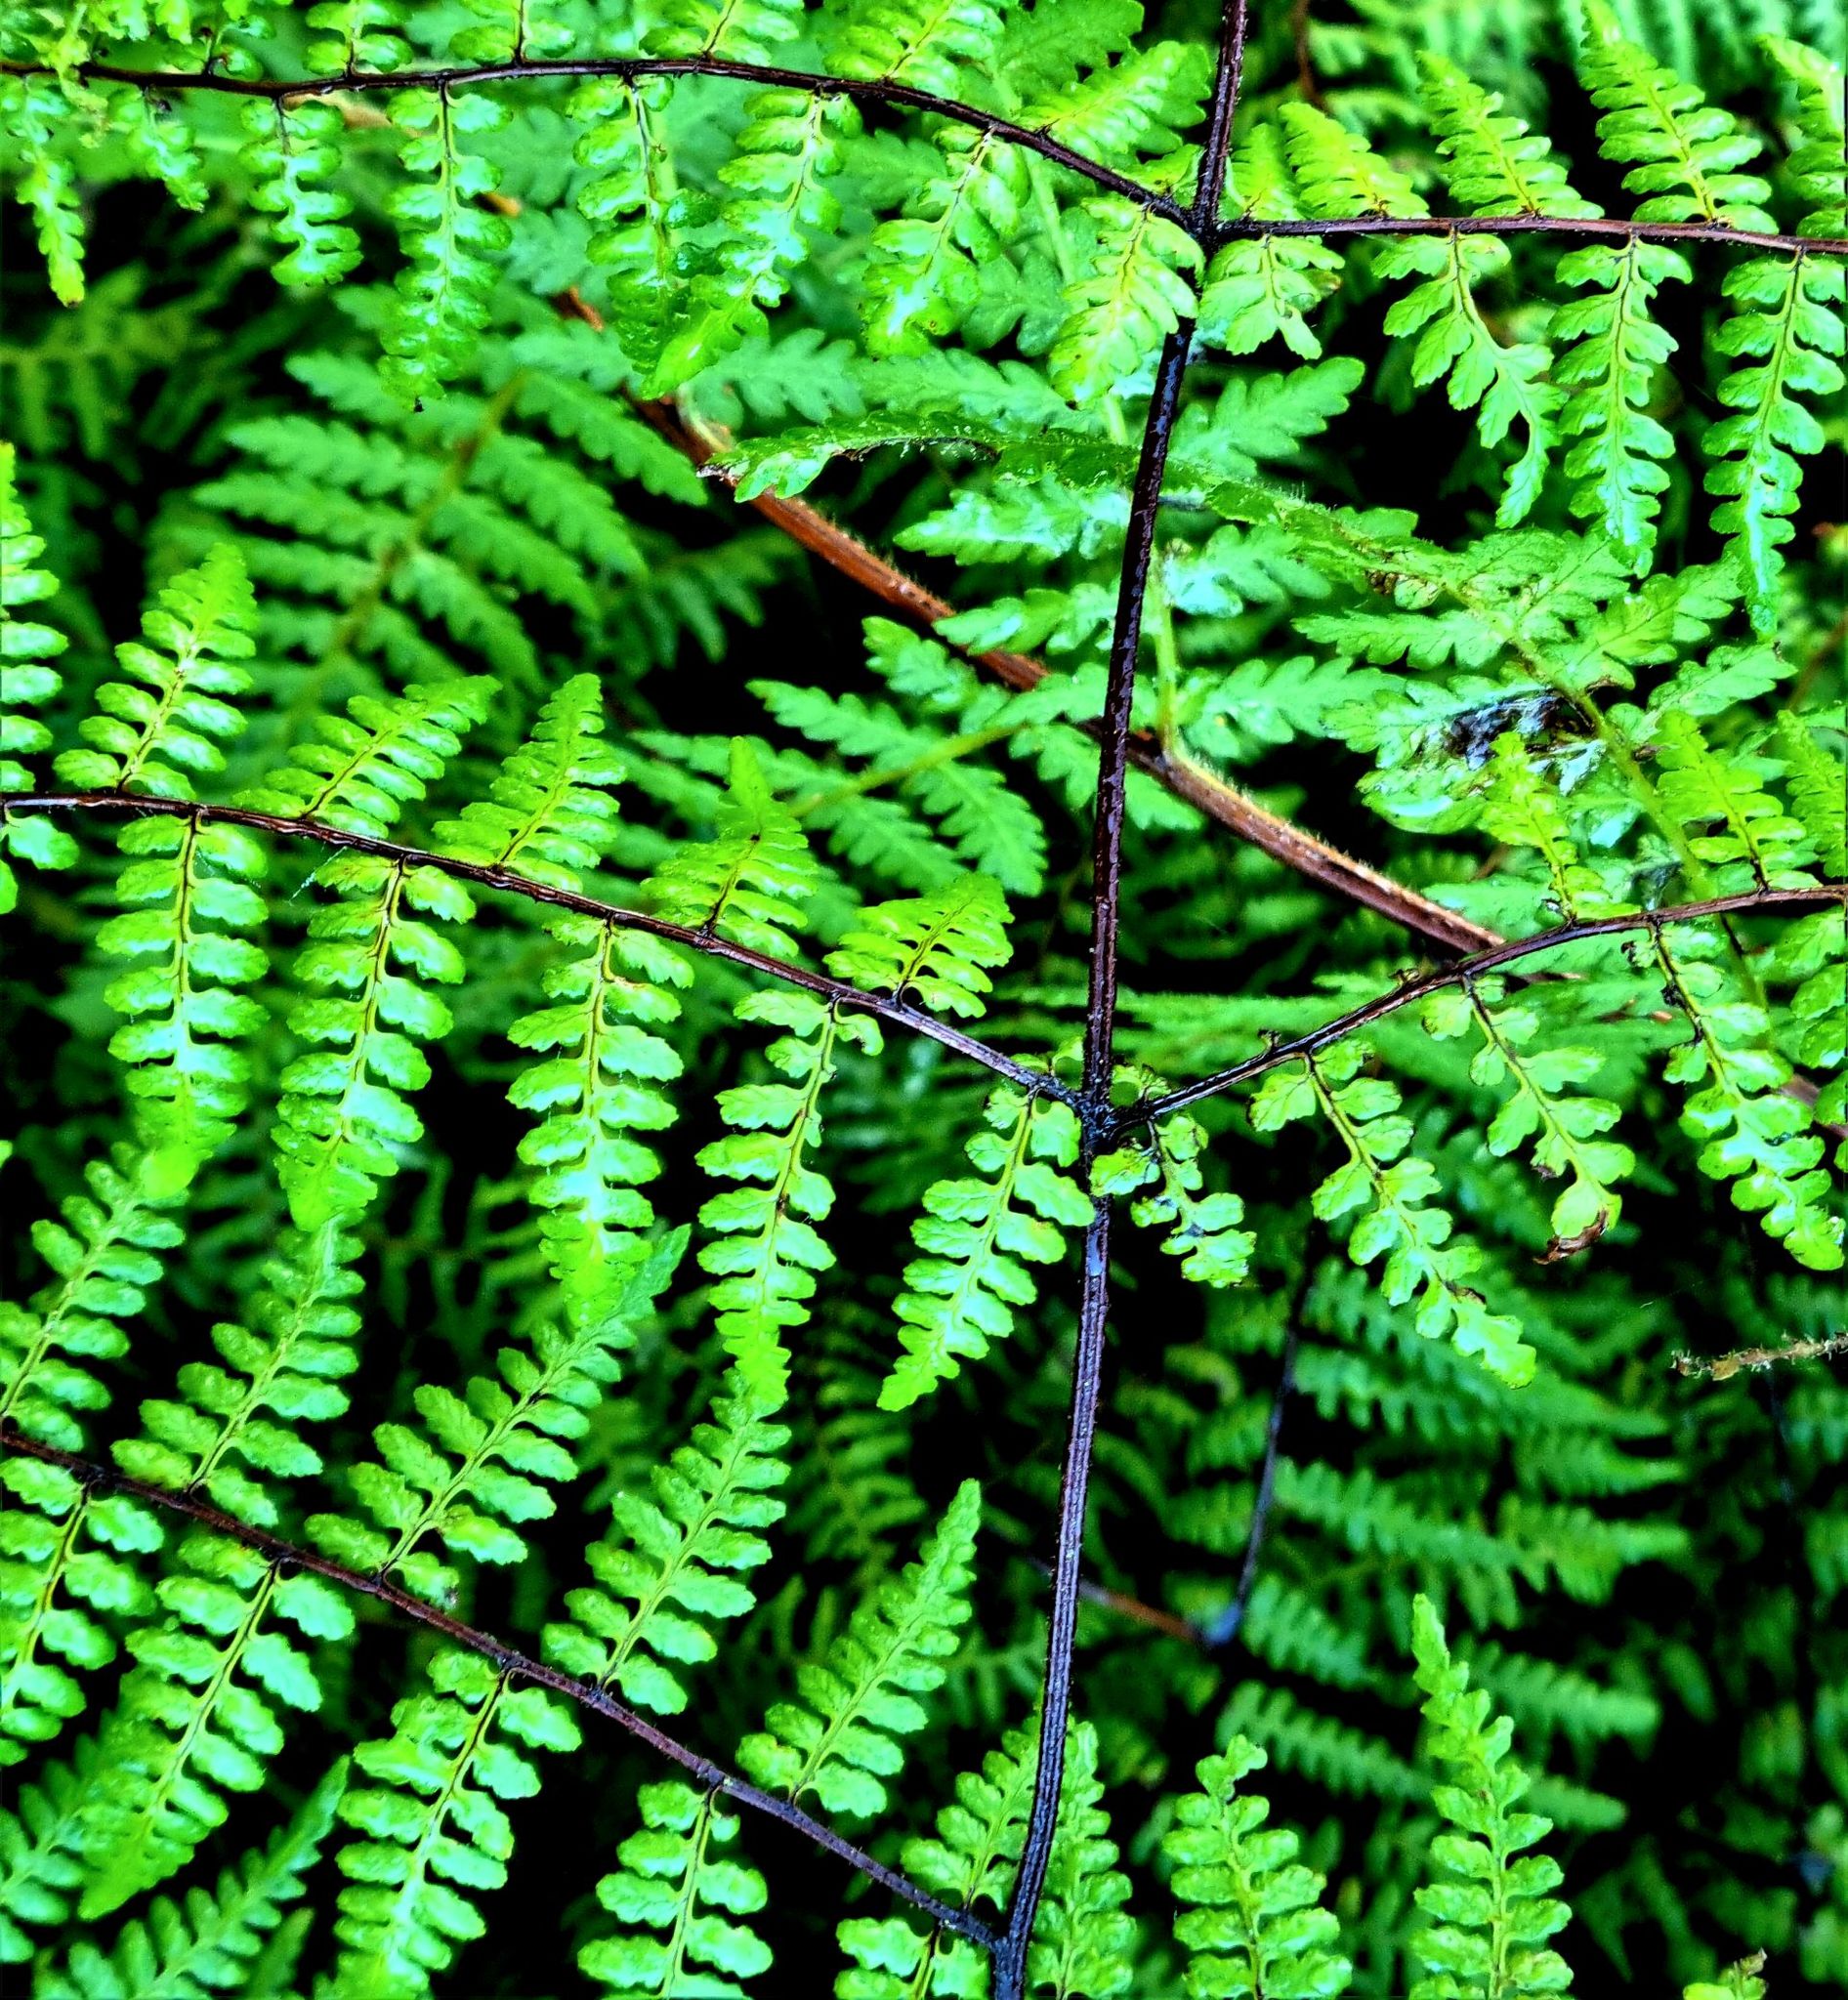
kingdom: Plantae
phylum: Tracheophyta
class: Polypodiopsida
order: Polypodiales
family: Dennstaedtiaceae
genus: Hiya
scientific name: Hiya distans
